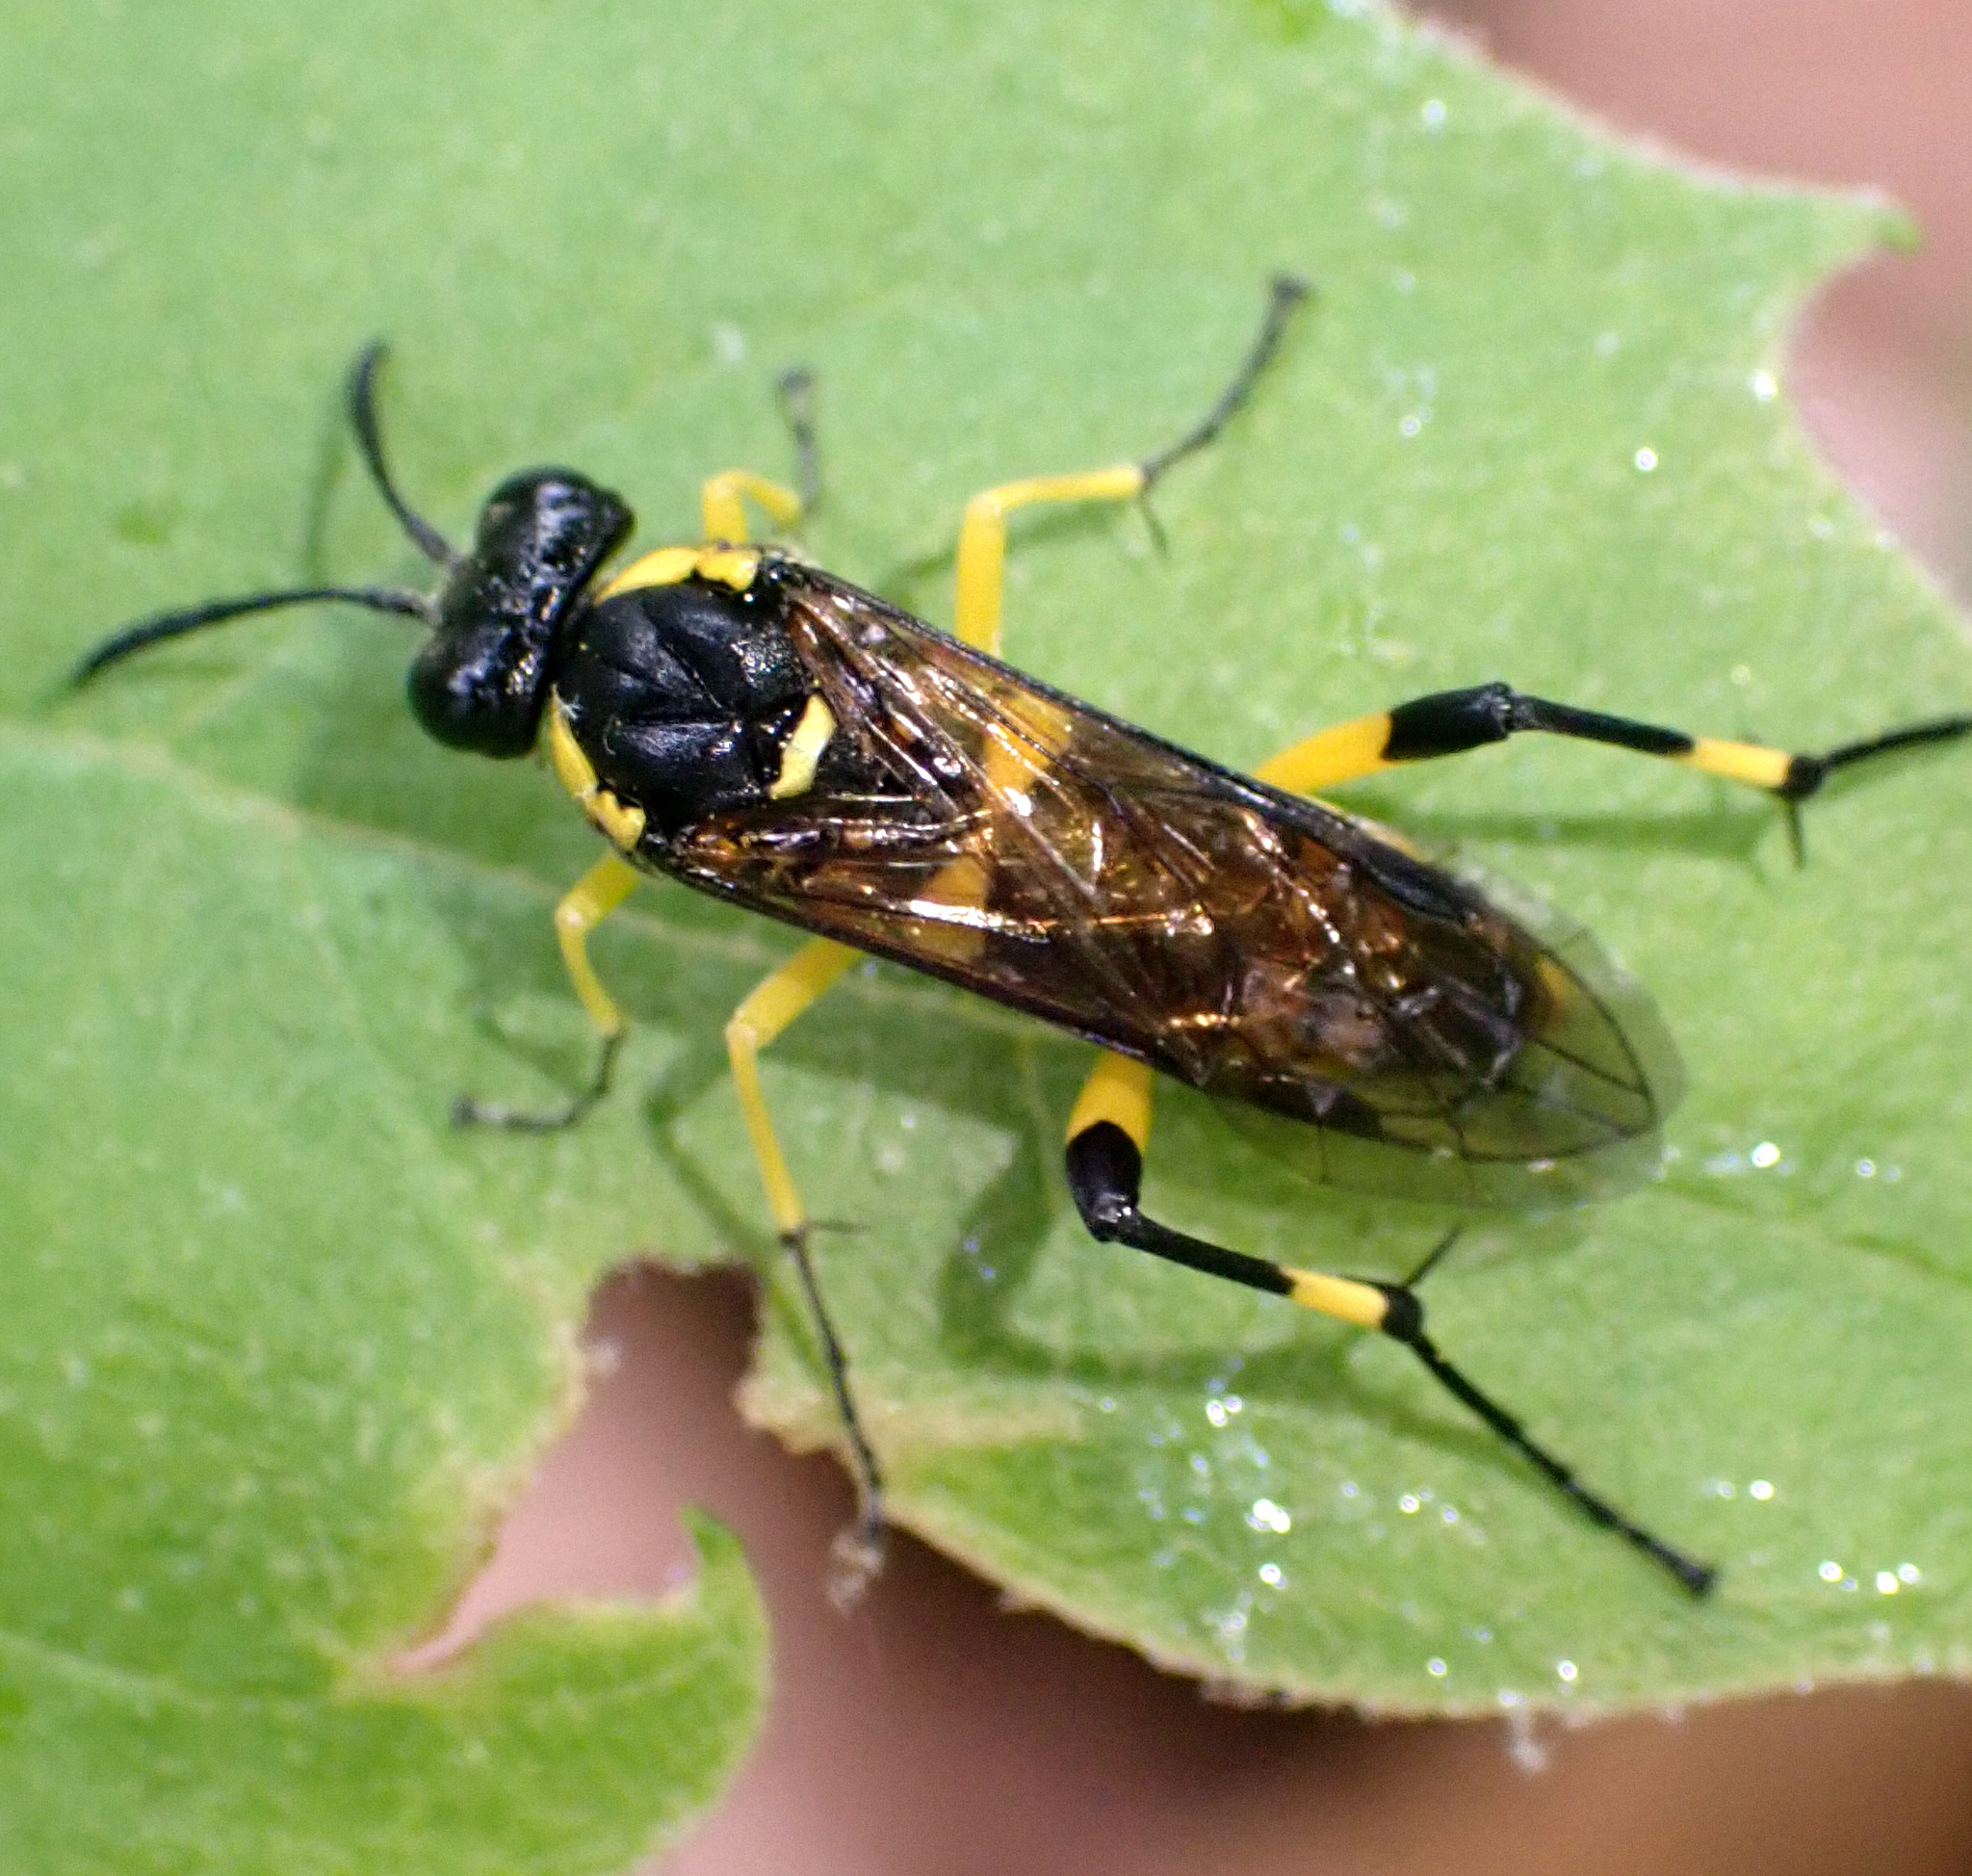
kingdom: Animalia
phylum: Arthropoda
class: Insecta
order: Hymenoptera
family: Tenthredinidae
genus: Macrophya
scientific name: Macrophya montana
